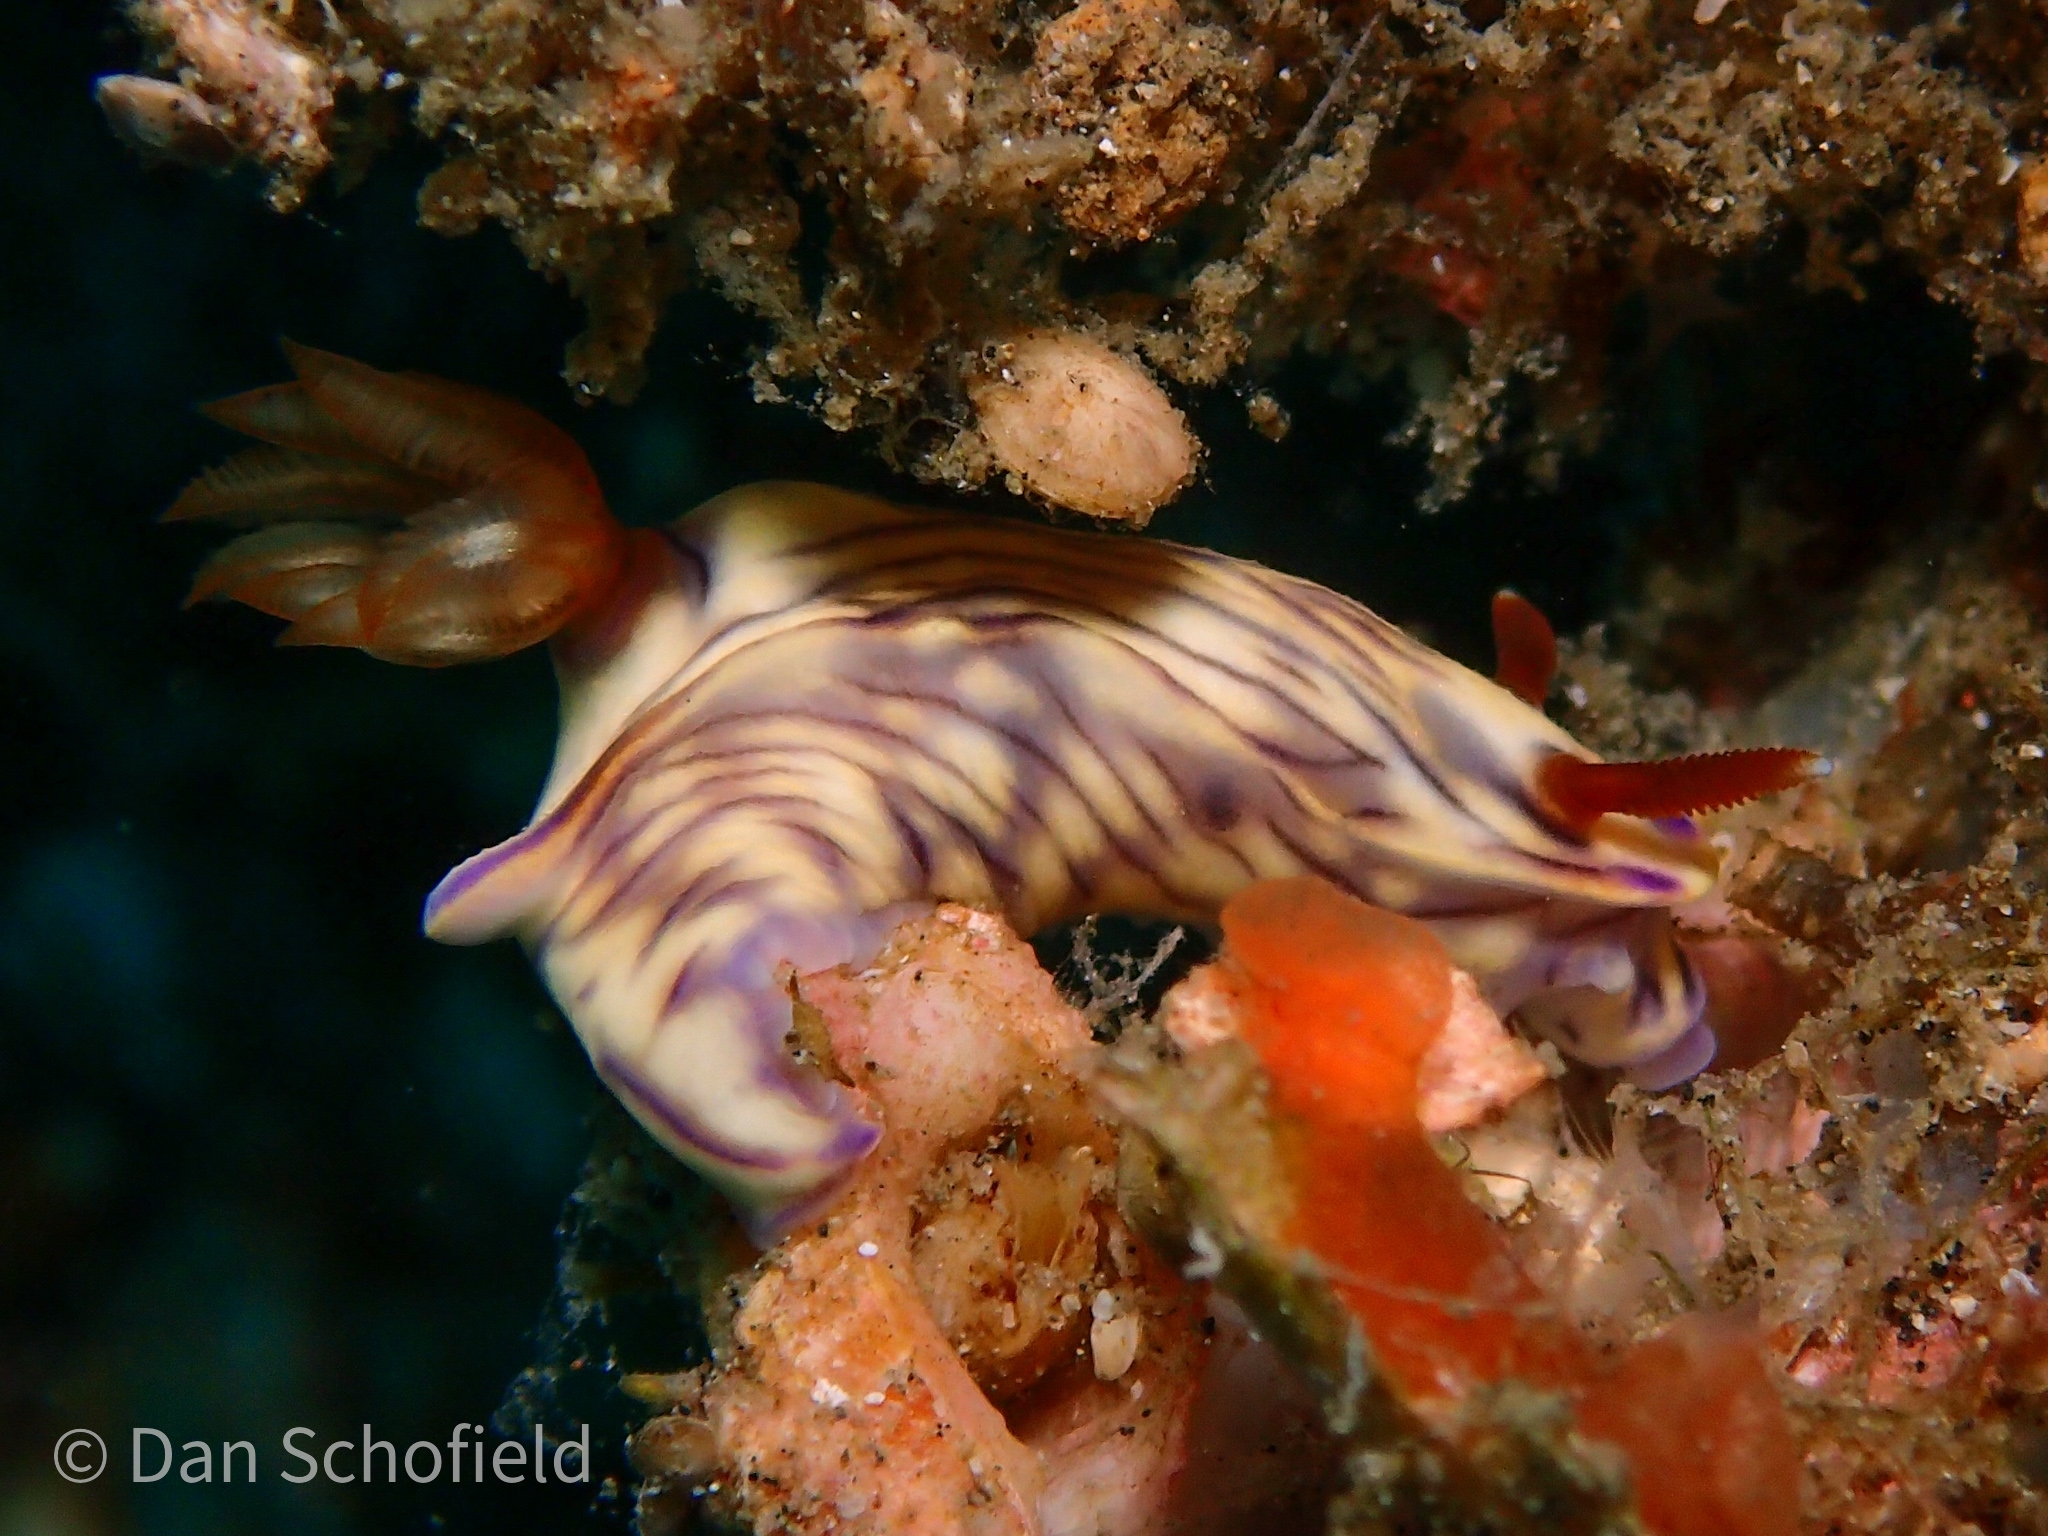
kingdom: Animalia
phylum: Mollusca
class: Gastropoda
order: Nudibranchia
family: Chromodorididae
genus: Hypselodoris
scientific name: Hypselodoris zephyra
